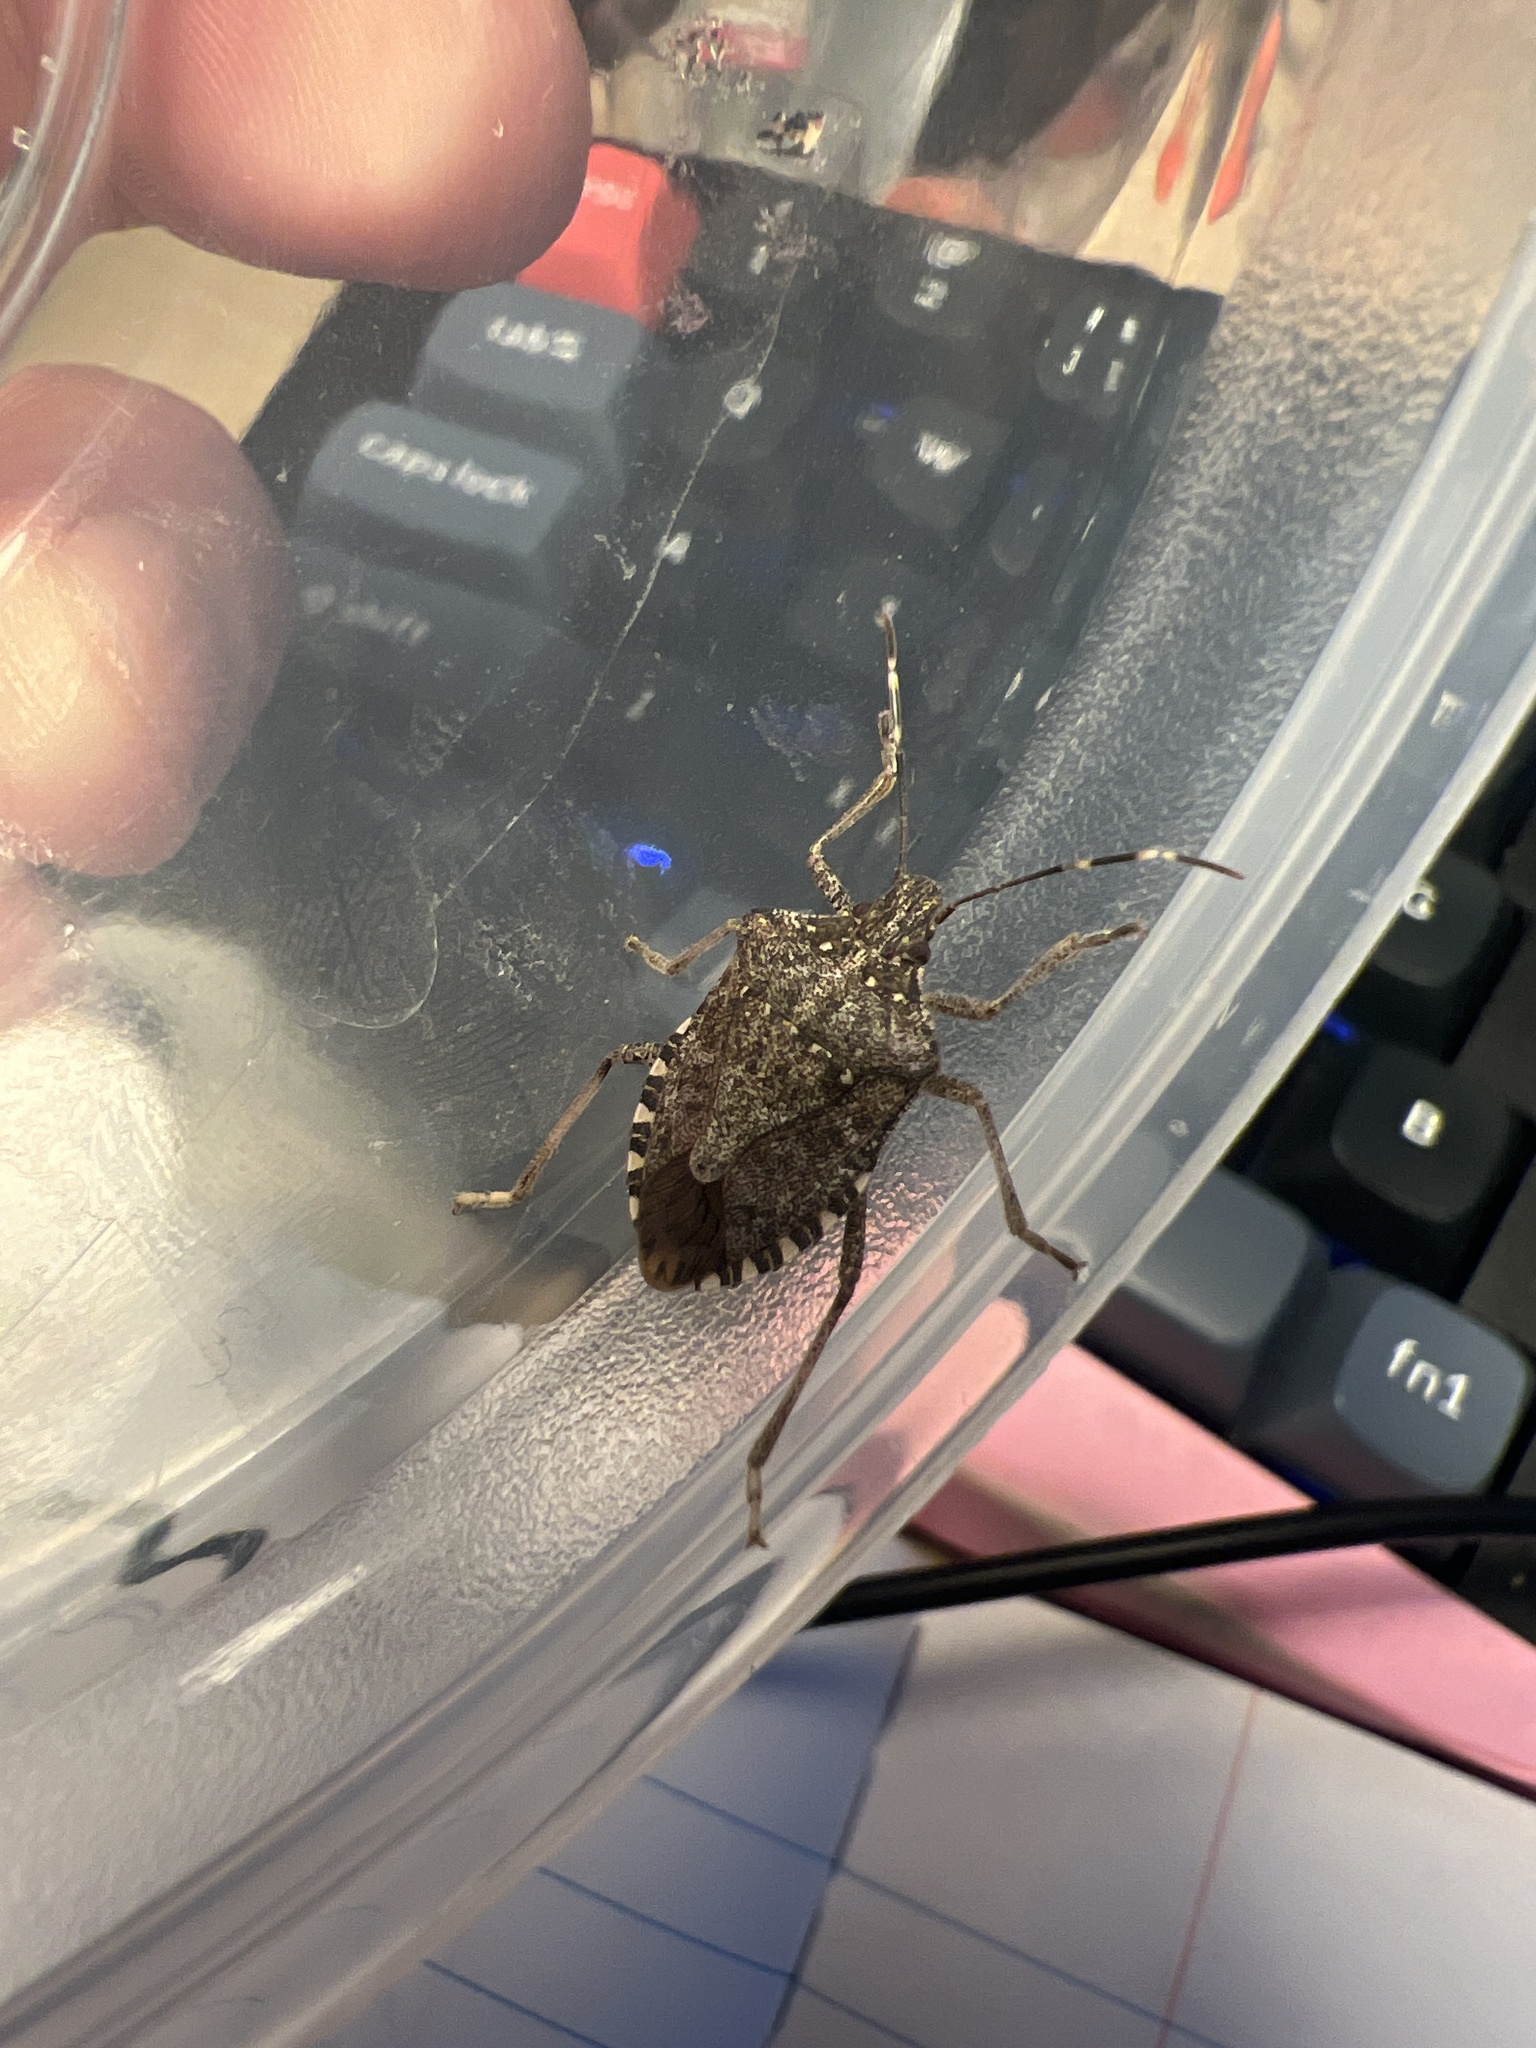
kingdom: Animalia
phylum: Arthropoda
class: Insecta
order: Hemiptera
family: Pentatomidae
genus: Halyomorpha
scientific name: Halyomorpha halys
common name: Brown marmorated stink bug
